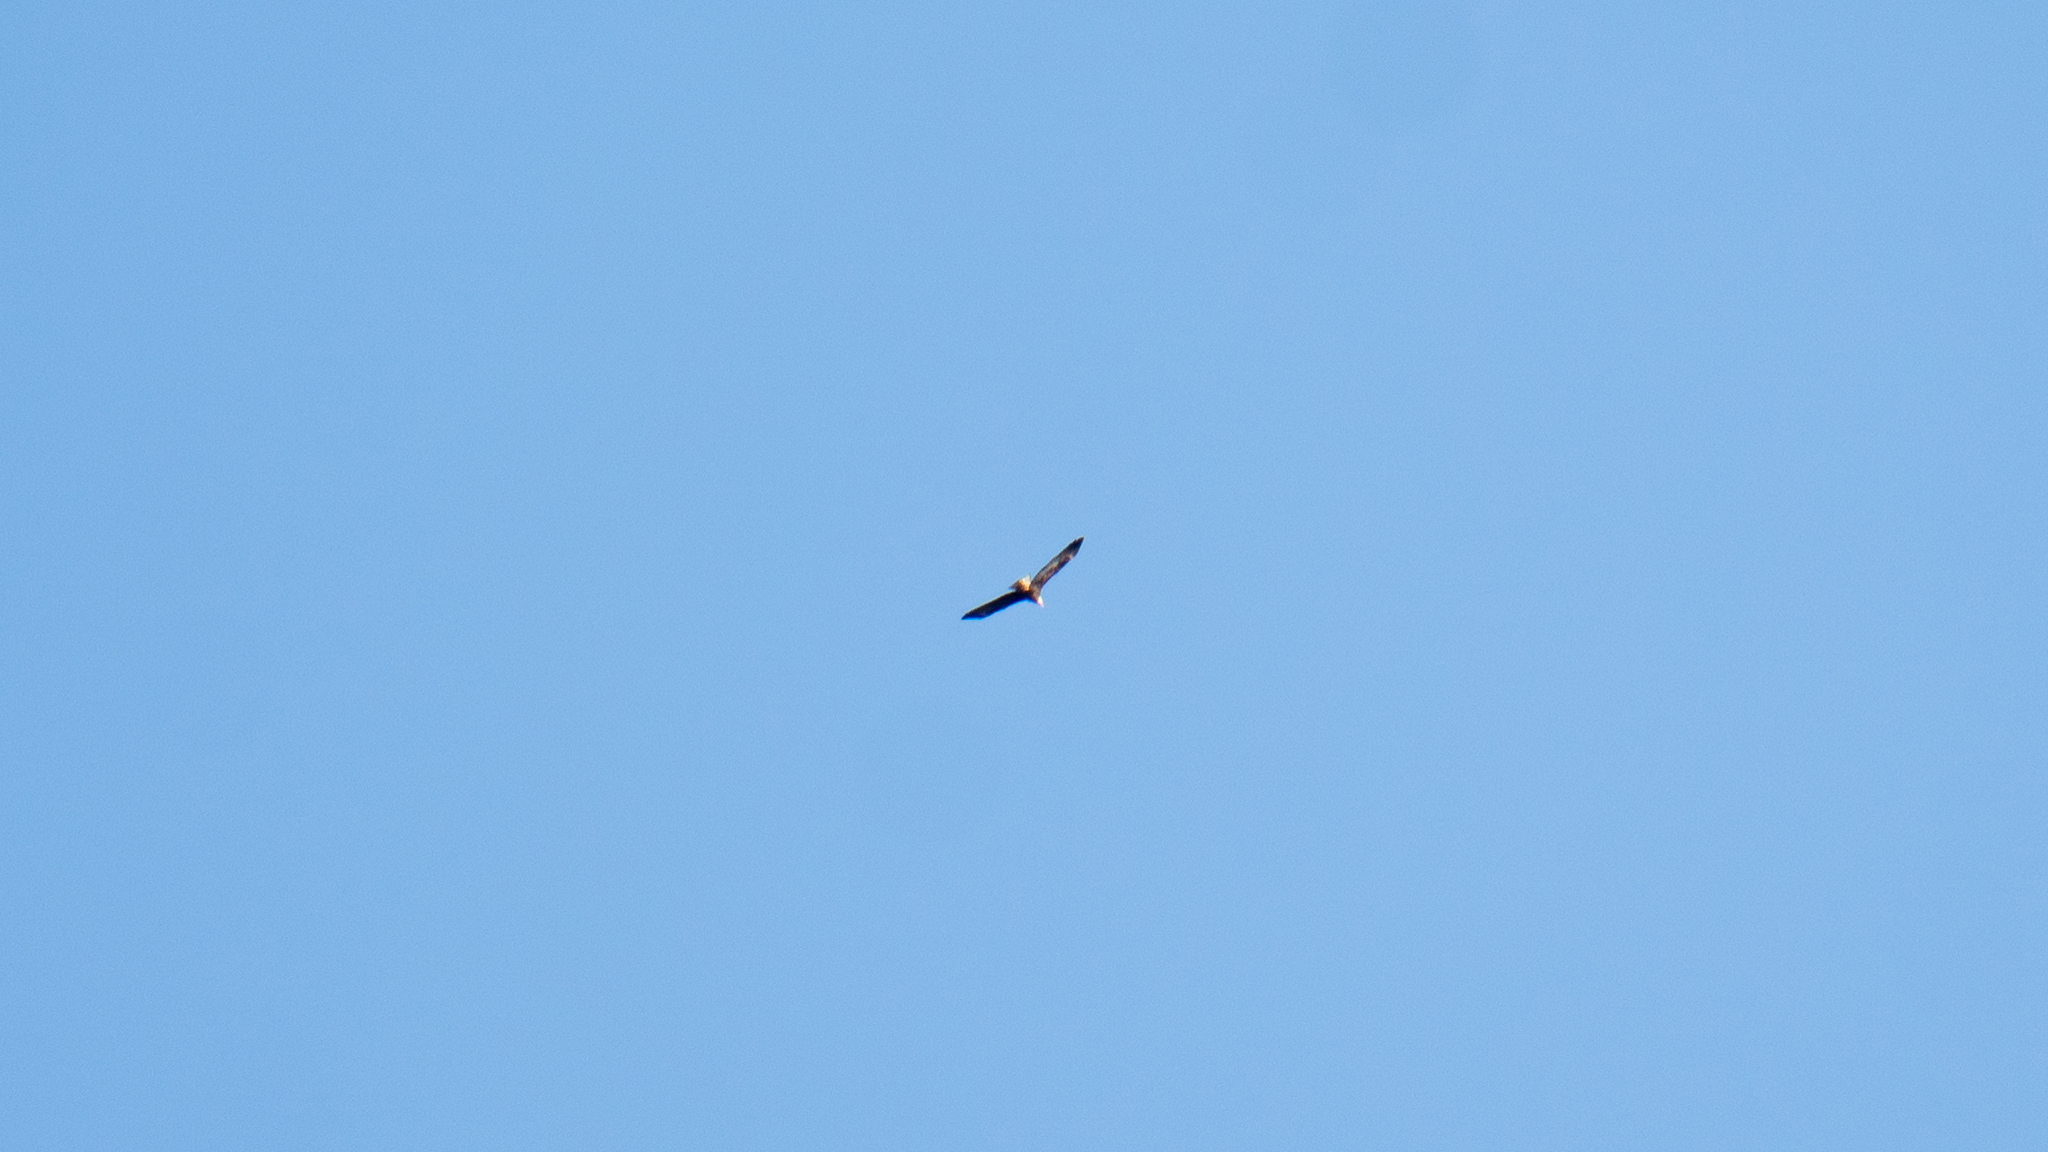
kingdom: Animalia
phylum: Chordata
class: Aves
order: Accipitriformes
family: Accipitridae
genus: Haliaeetus
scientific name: Haliaeetus leucocephalus
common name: Bald eagle
